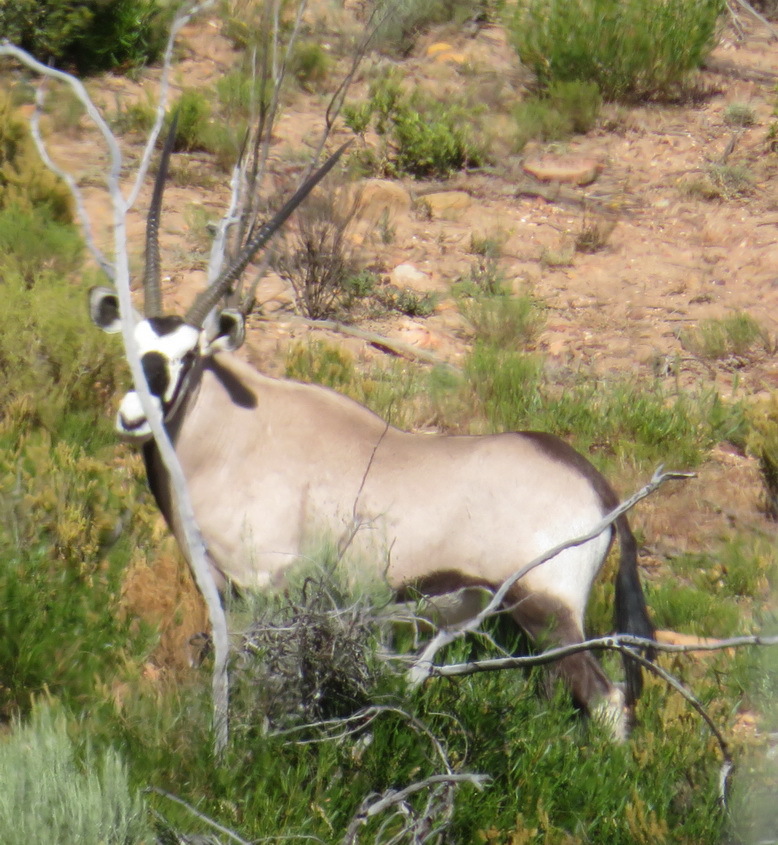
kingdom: Animalia
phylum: Chordata
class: Mammalia
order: Artiodactyla
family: Bovidae
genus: Oryx
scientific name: Oryx gazella
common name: Gemsbok
